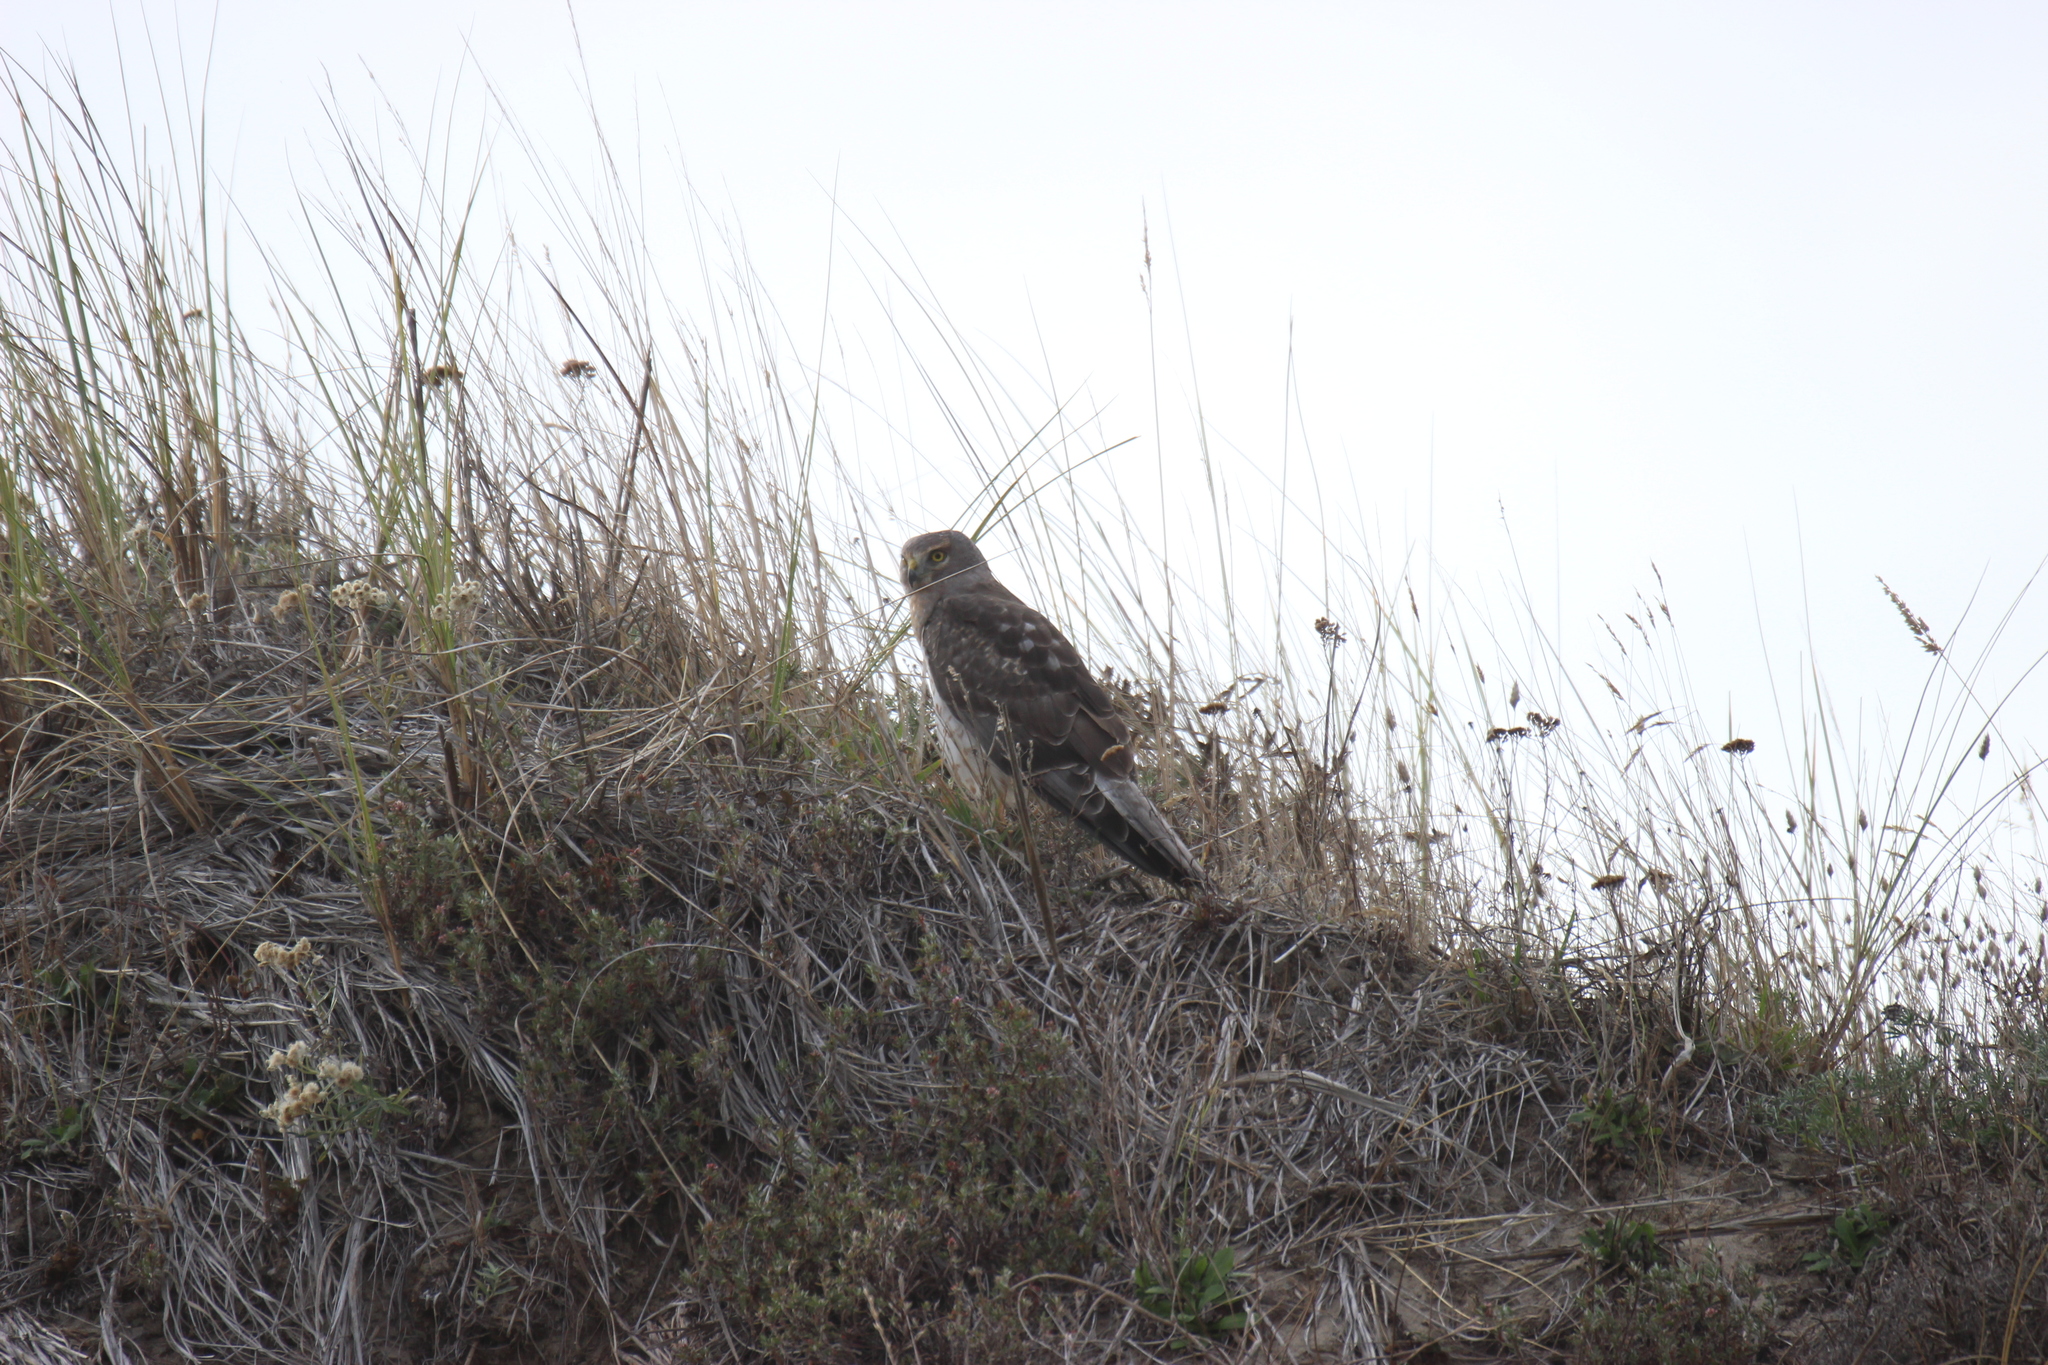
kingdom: Animalia
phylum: Chordata
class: Aves
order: Accipitriformes
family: Accipitridae
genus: Circus
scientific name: Circus cyaneus
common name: Hen harrier
